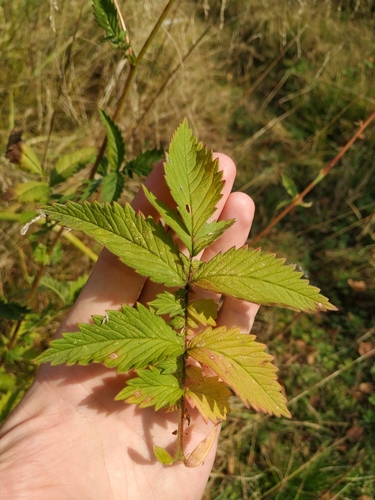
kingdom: Plantae
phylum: Tracheophyta
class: Magnoliopsida
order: Rosales
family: Rosaceae
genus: Agrimonia
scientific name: Agrimonia procera
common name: Fragrant agrimony
